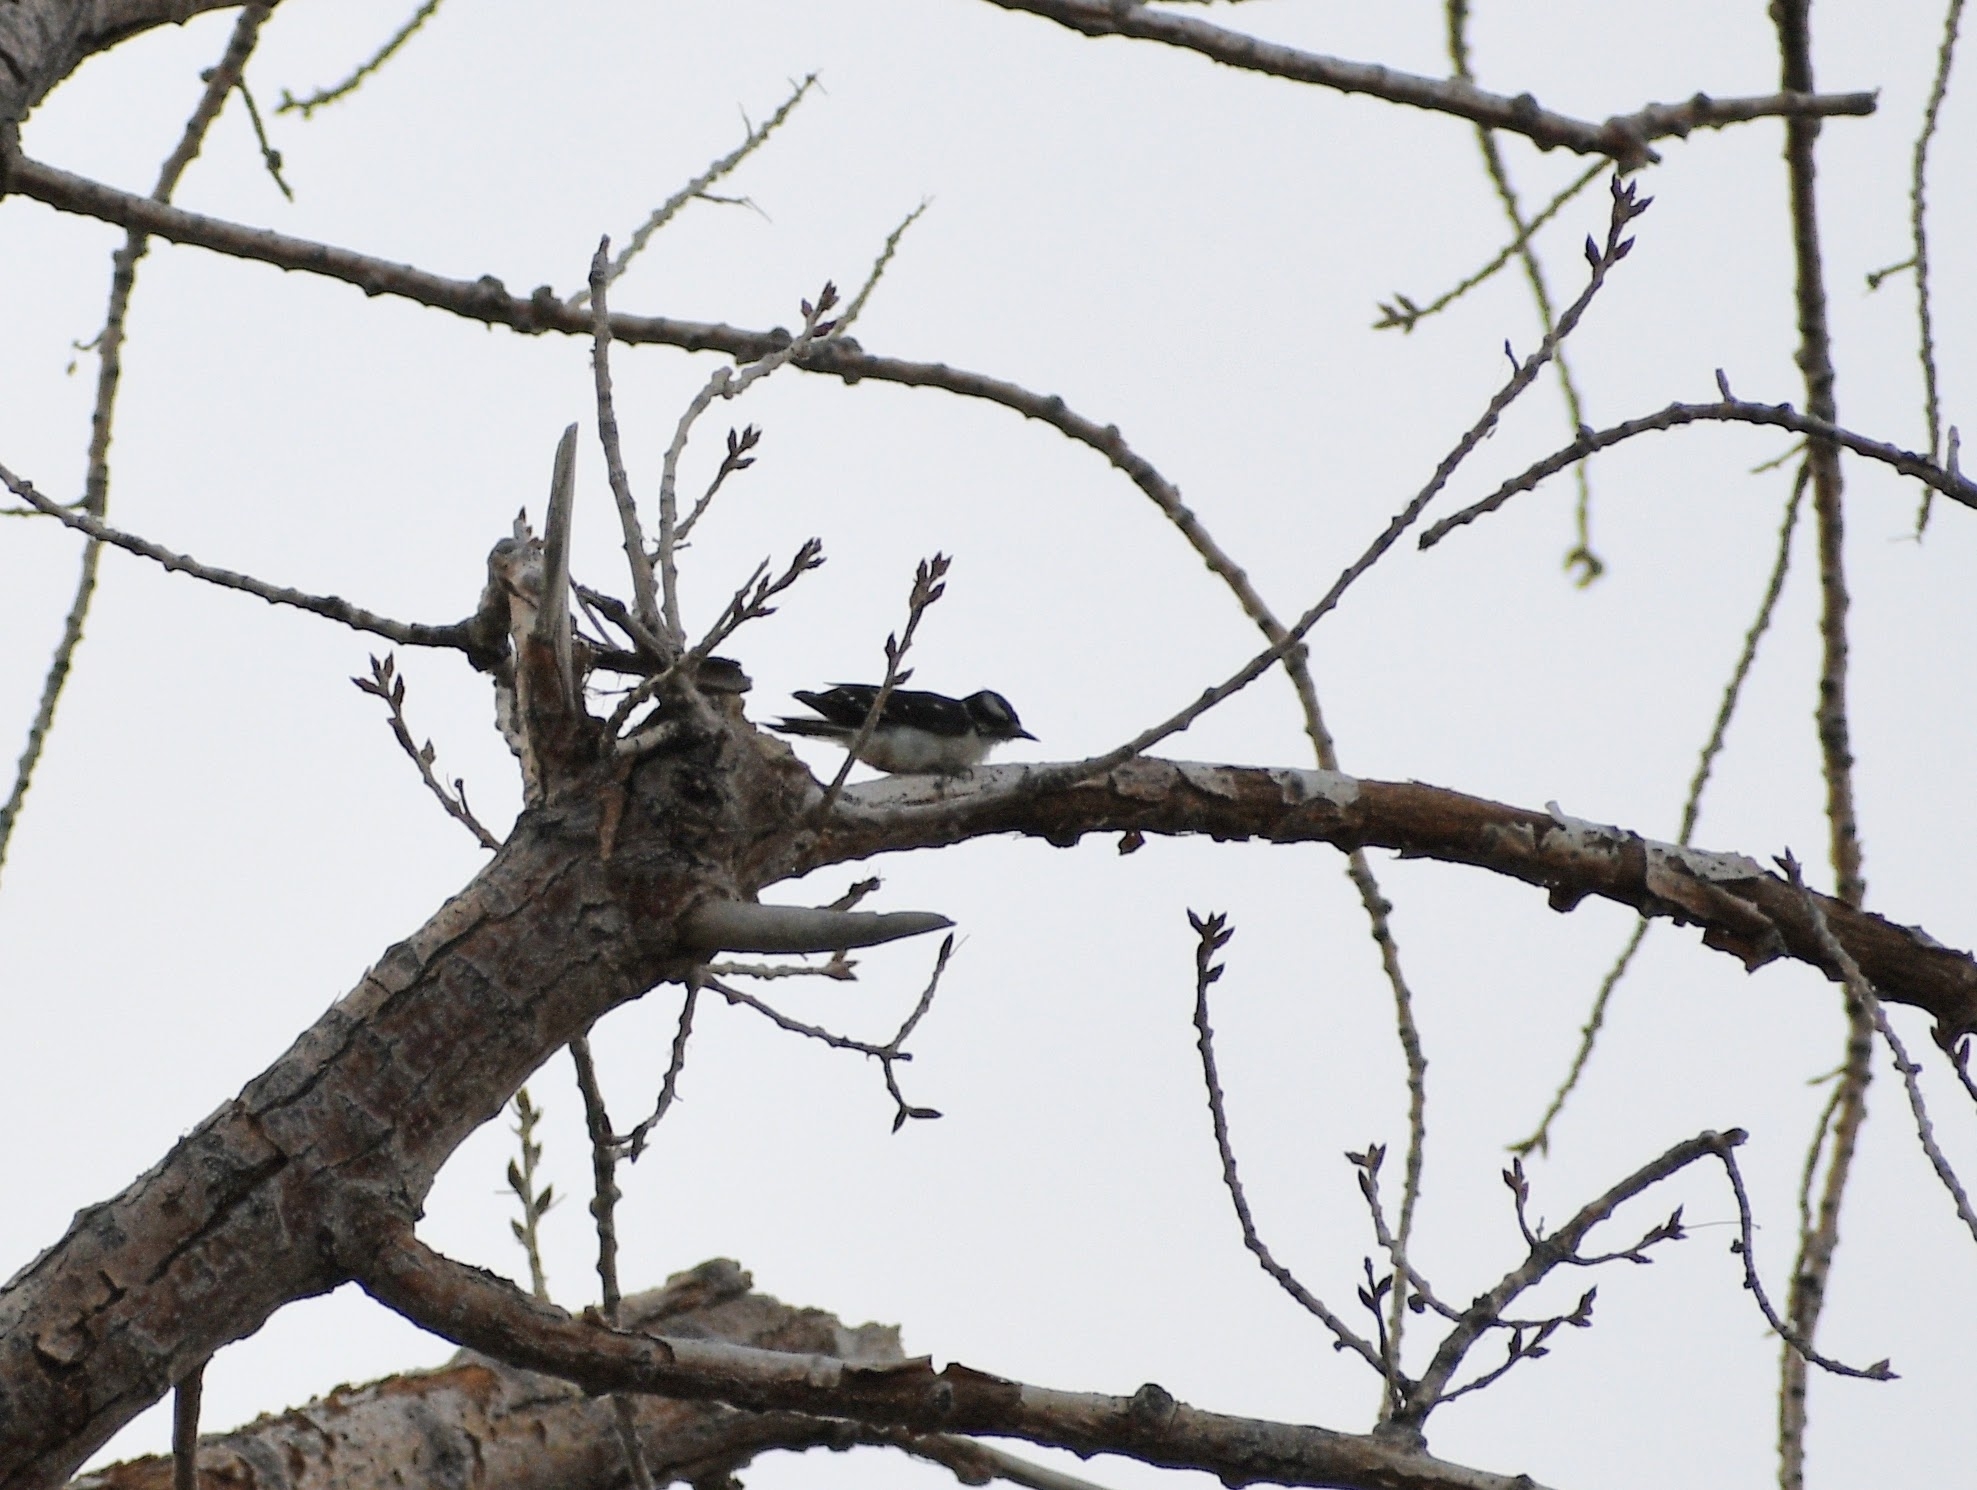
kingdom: Animalia
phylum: Chordata
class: Aves
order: Piciformes
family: Picidae
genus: Dryobates
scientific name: Dryobates pubescens
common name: Downy woodpecker
